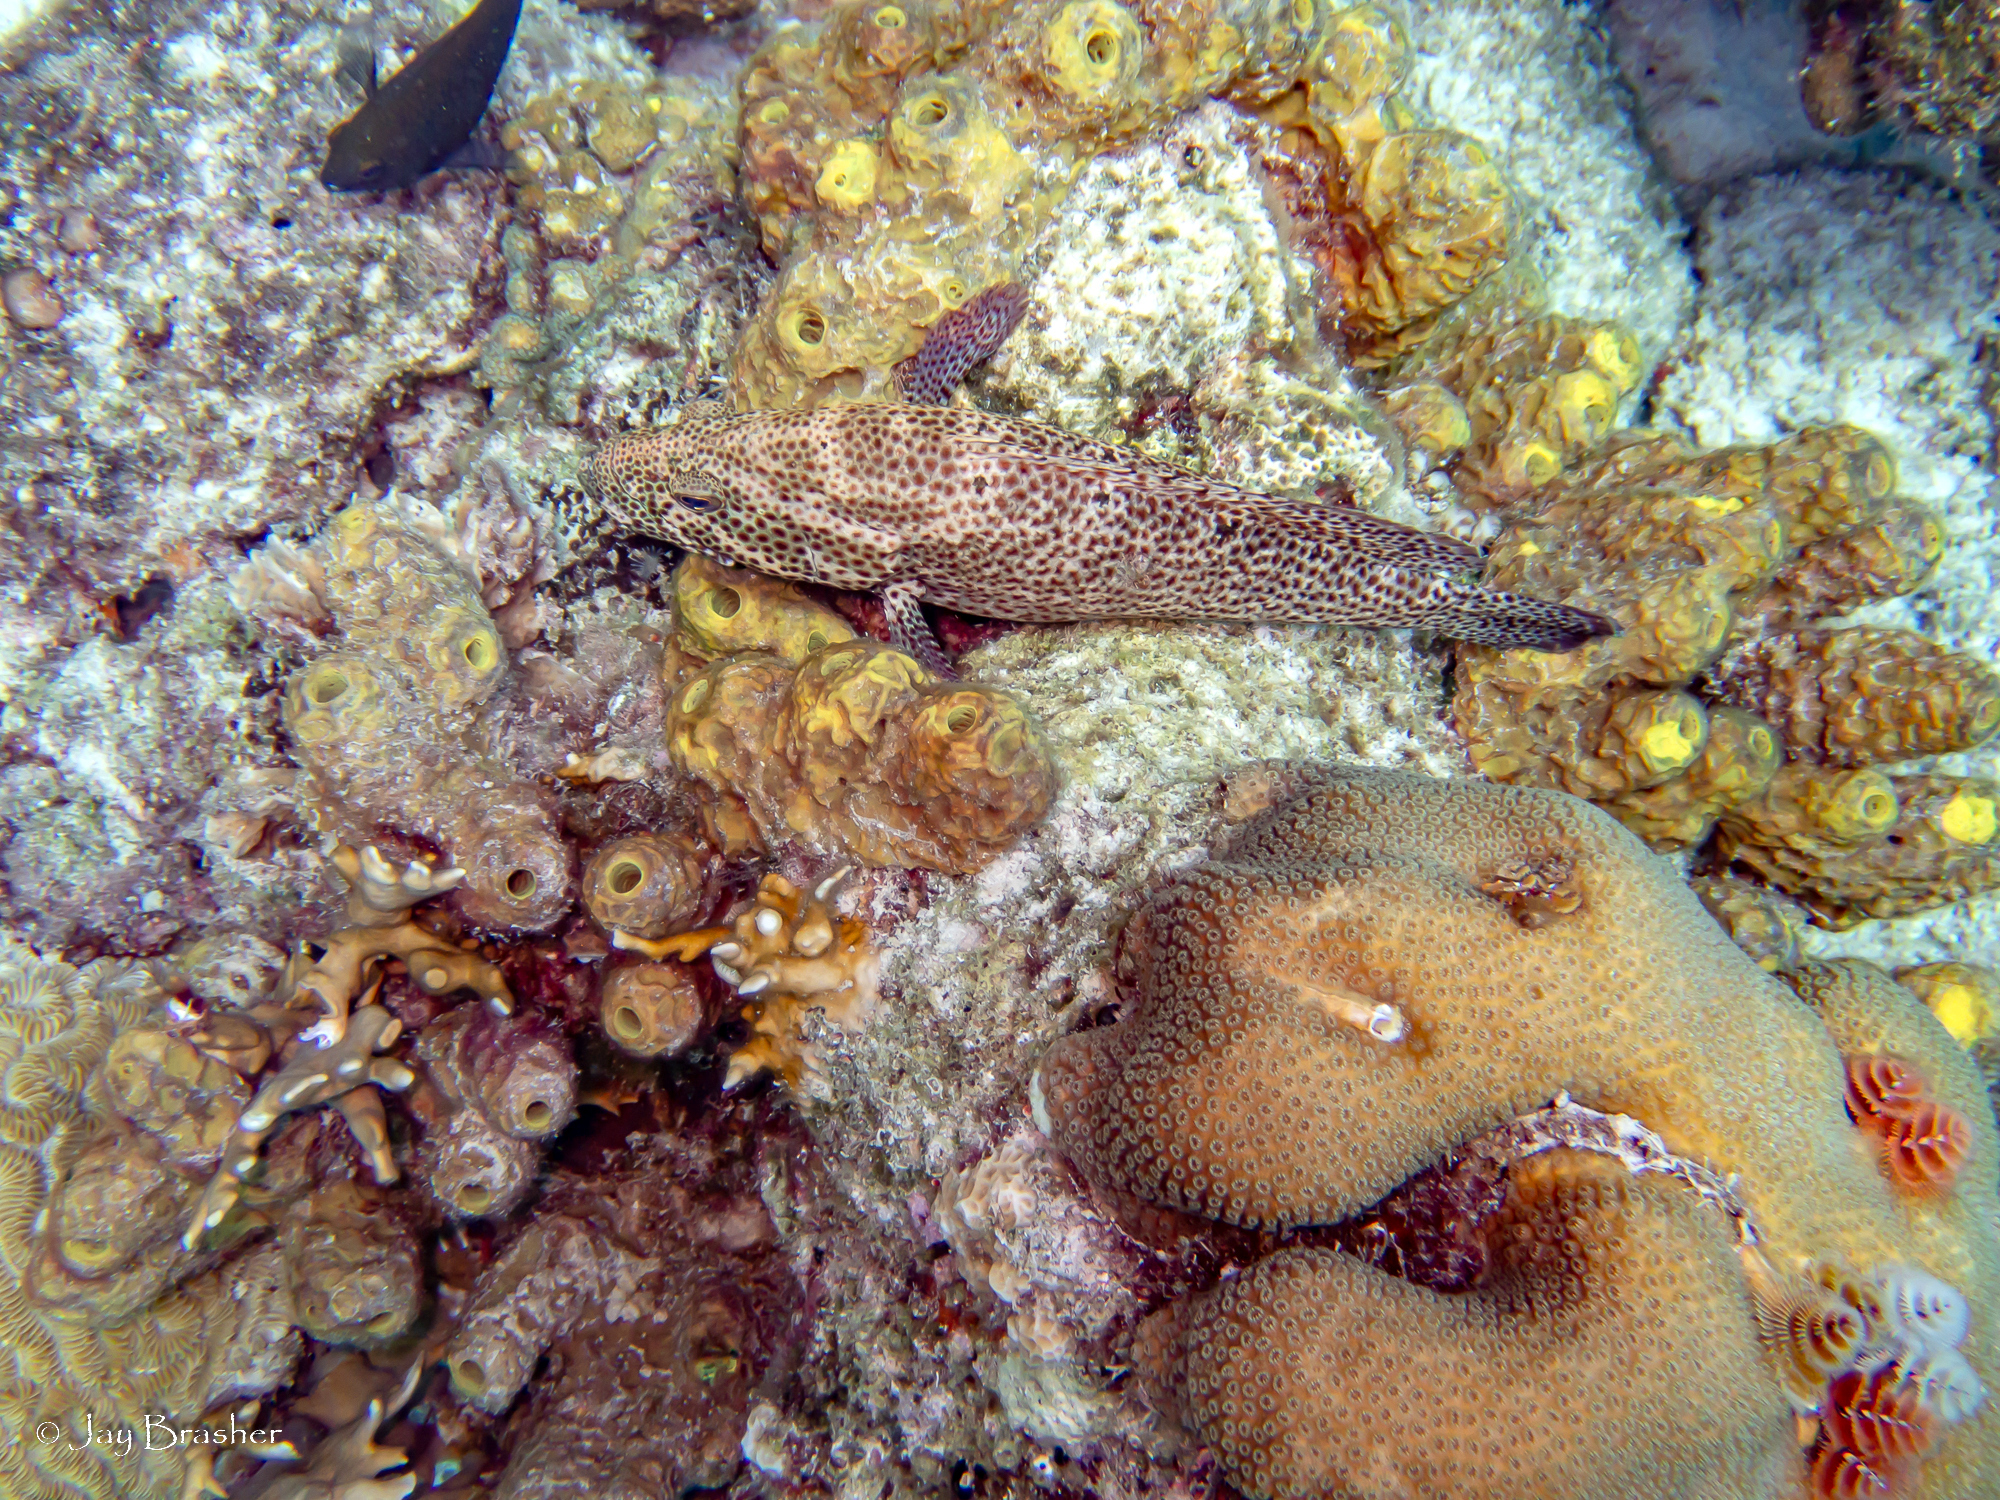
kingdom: Animalia
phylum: Cnidaria
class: Anthozoa
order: Scleractinia
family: Meandrinidae
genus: Meandrina
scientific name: Meandrina meandrites
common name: Maze coral
